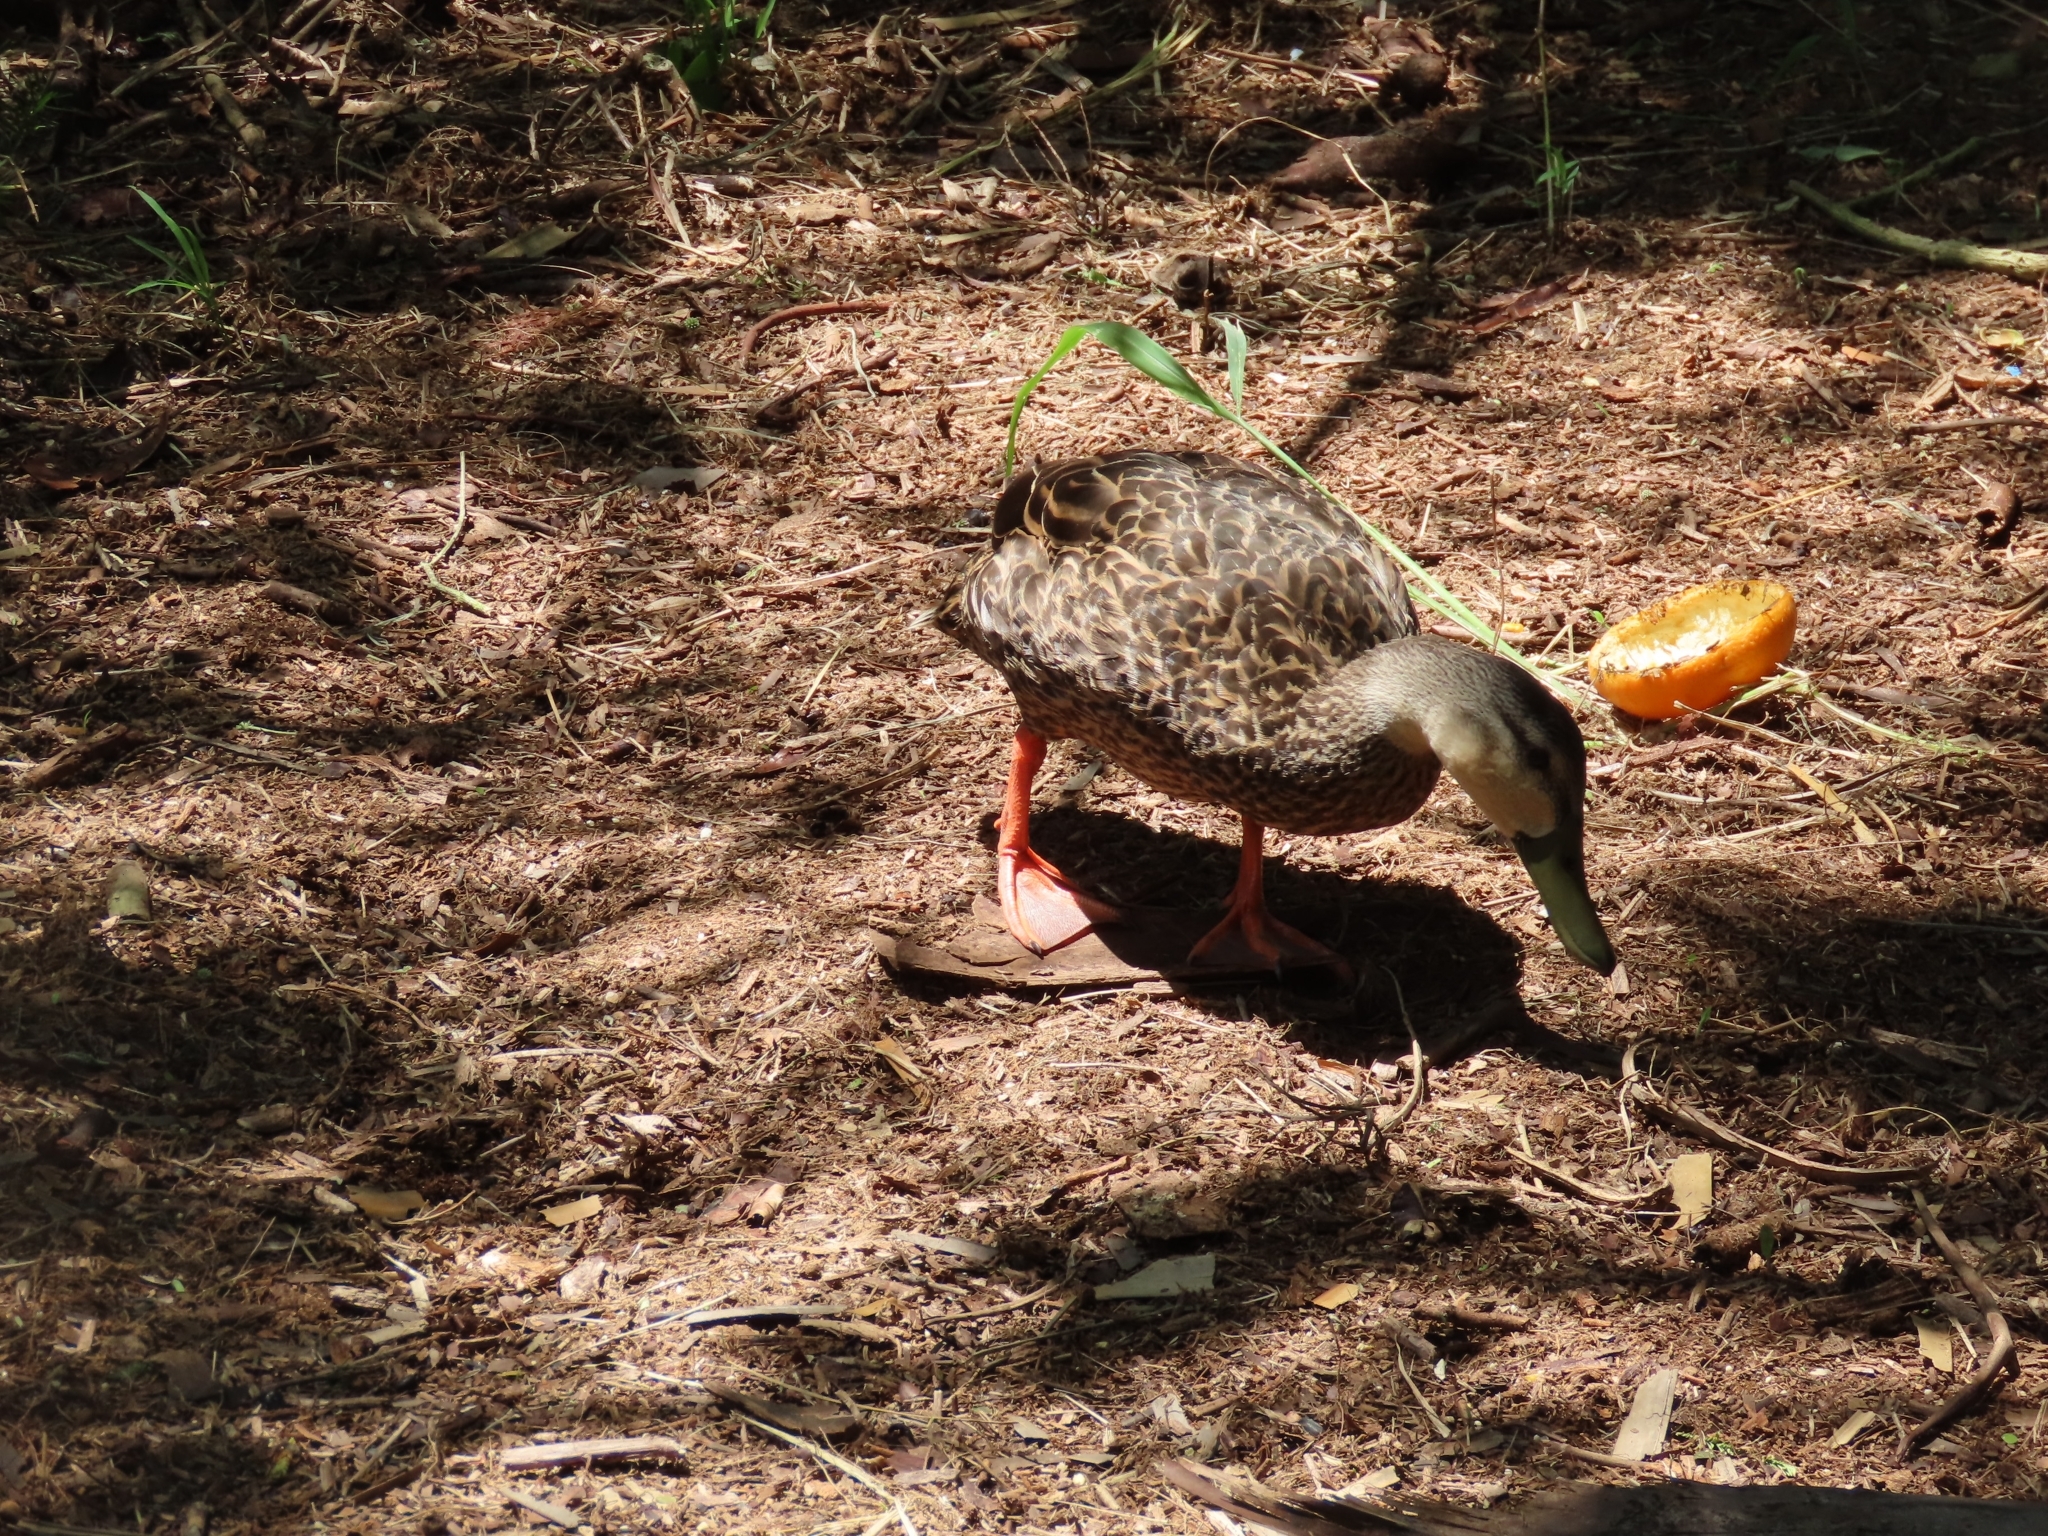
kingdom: Animalia
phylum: Chordata
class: Aves
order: Anseriformes
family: Anatidae
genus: Anas
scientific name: Anas fulvigula
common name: Mottled duck
